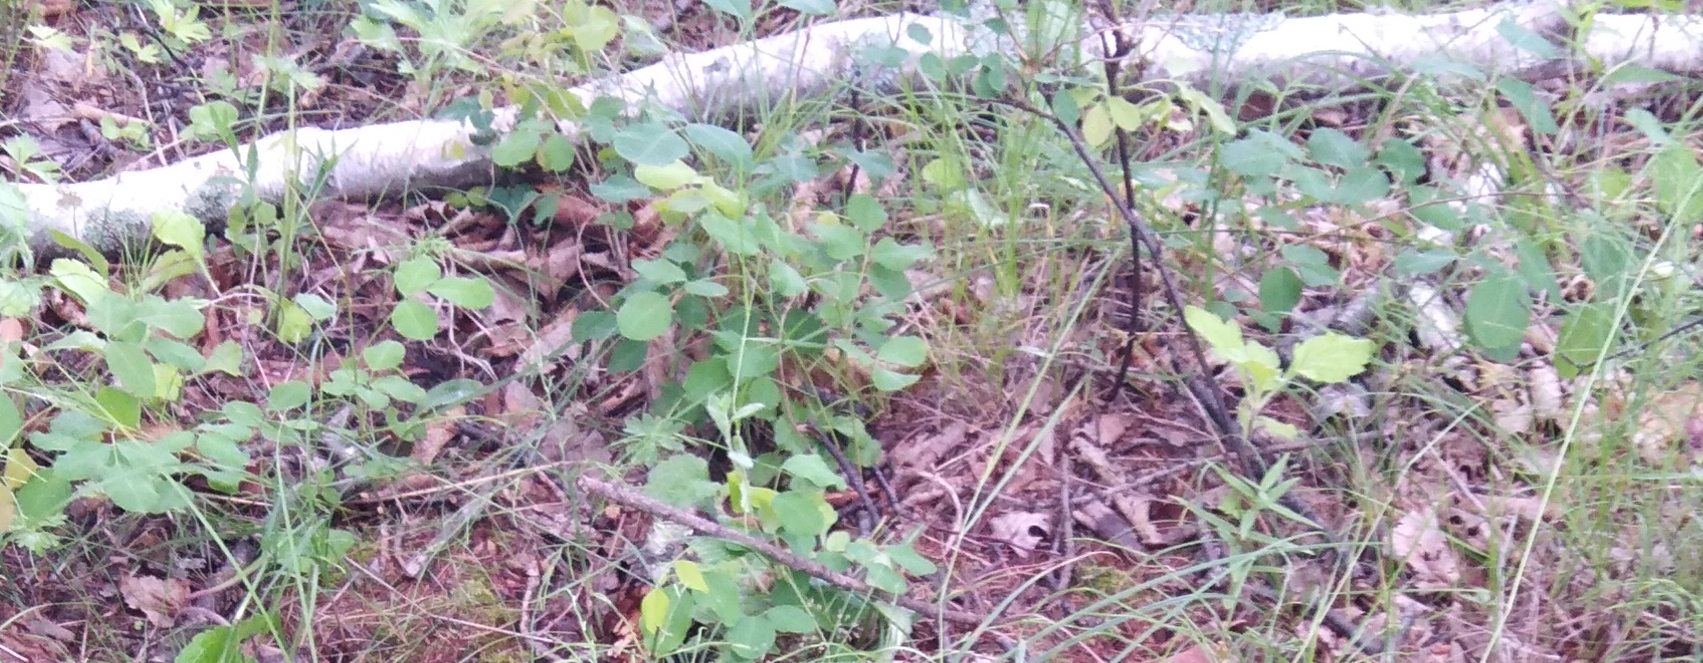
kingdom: Plantae
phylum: Tracheophyta
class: Magnoliopsida
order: Fabales
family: Fabaceae
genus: Lespedeza
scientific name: Lespedeza bicolor
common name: Shrub lespedeza
